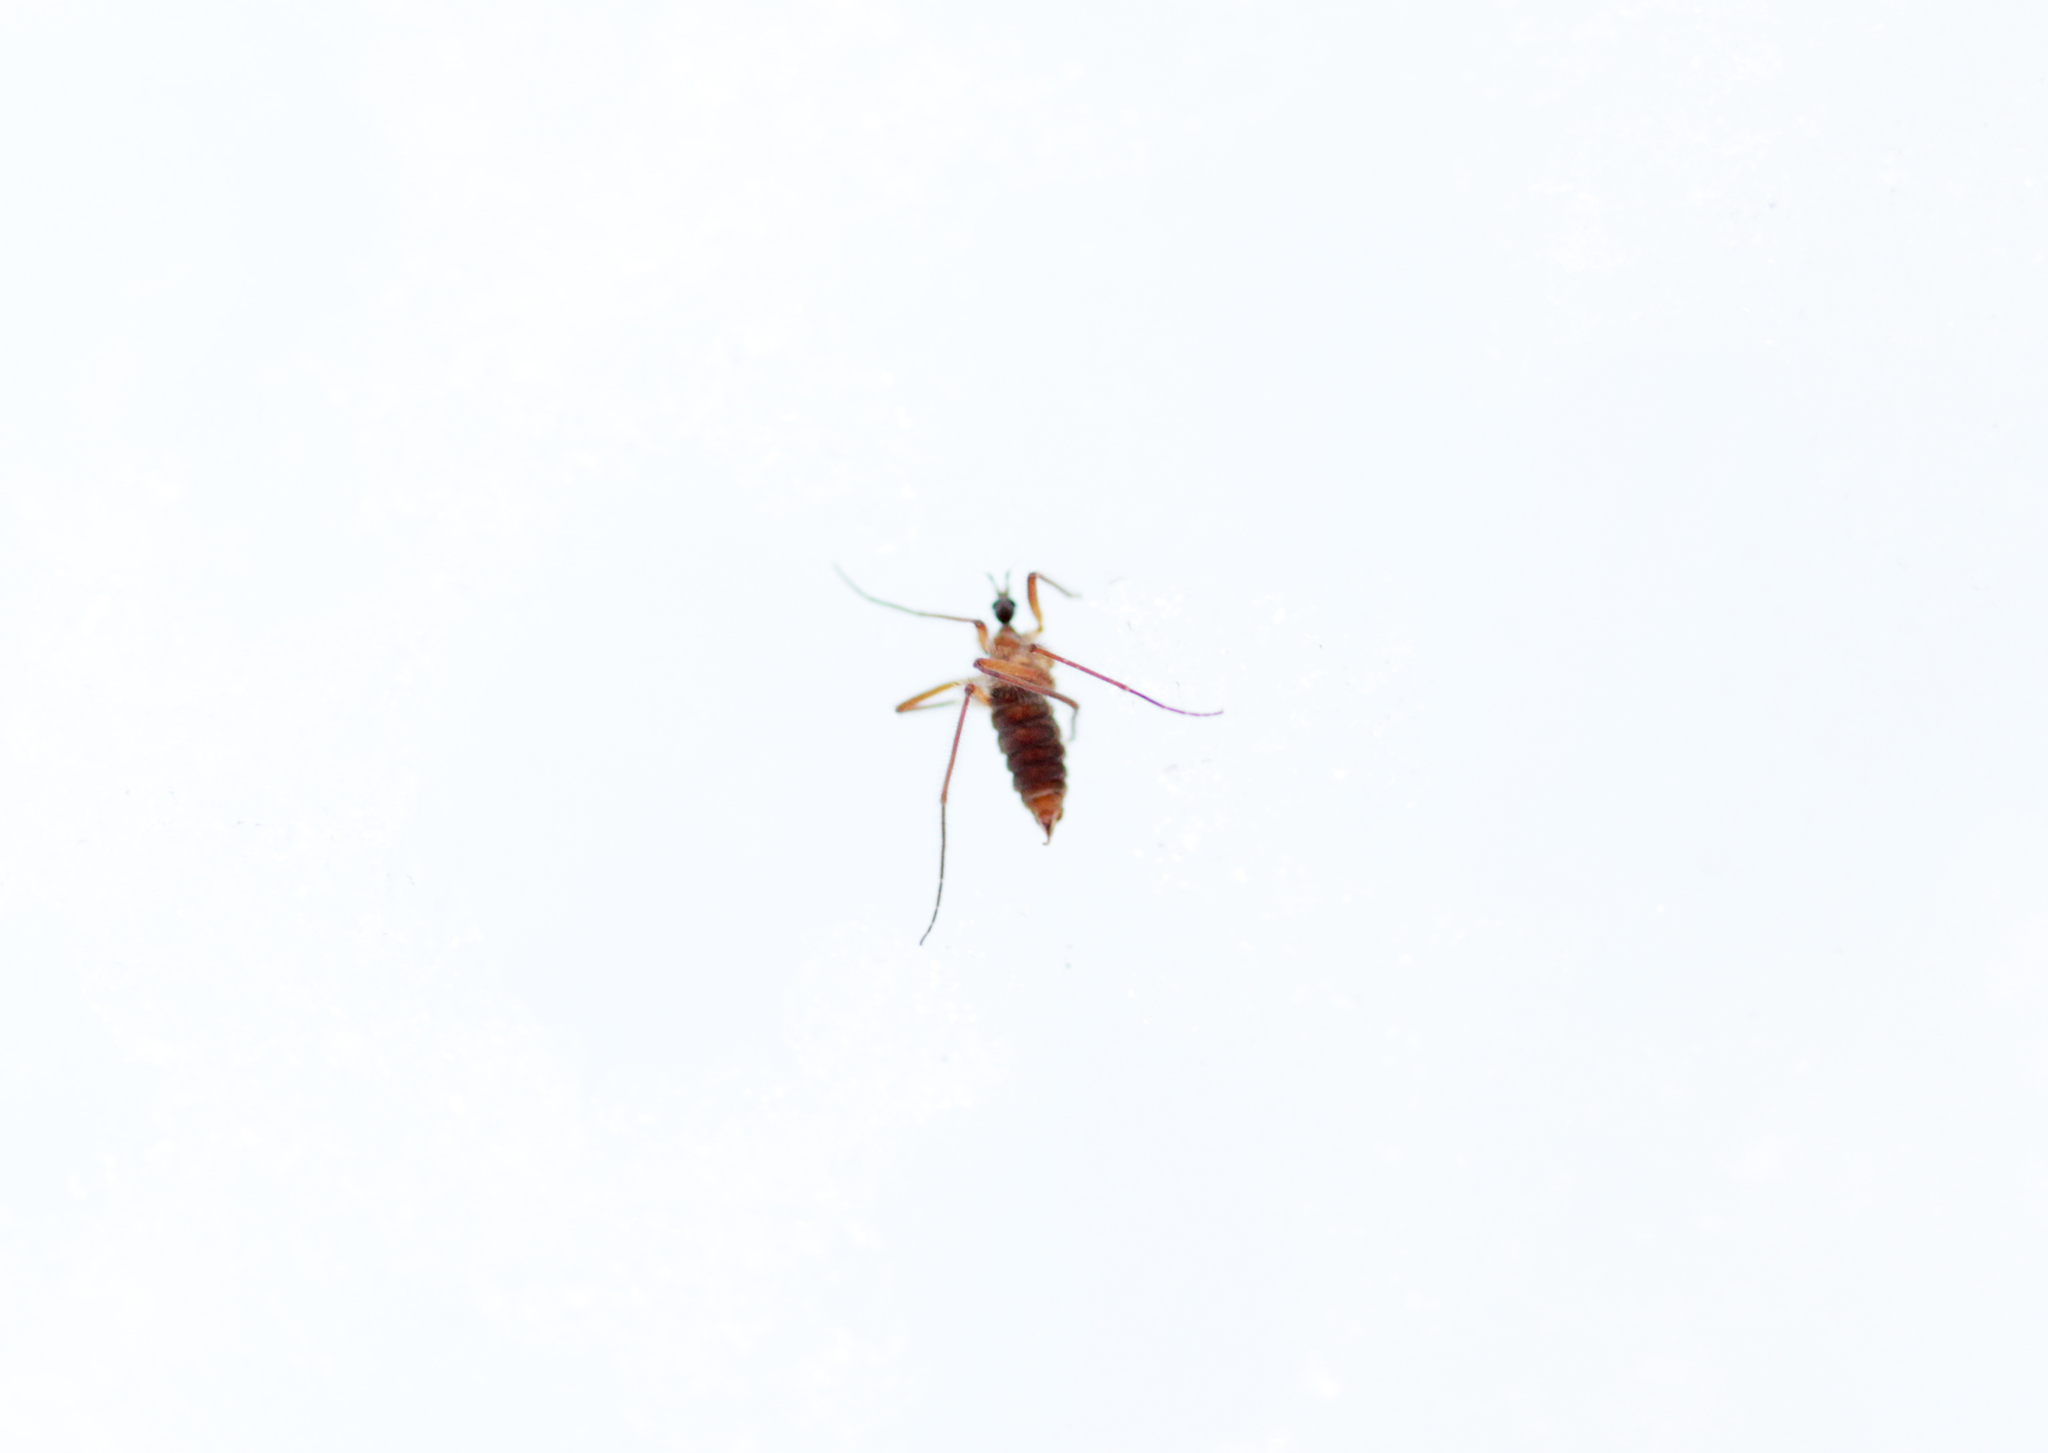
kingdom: Animalia
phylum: Arthropoda
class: Insecta
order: Diptera
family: Limoniidae
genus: Chionea
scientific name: Chionea
